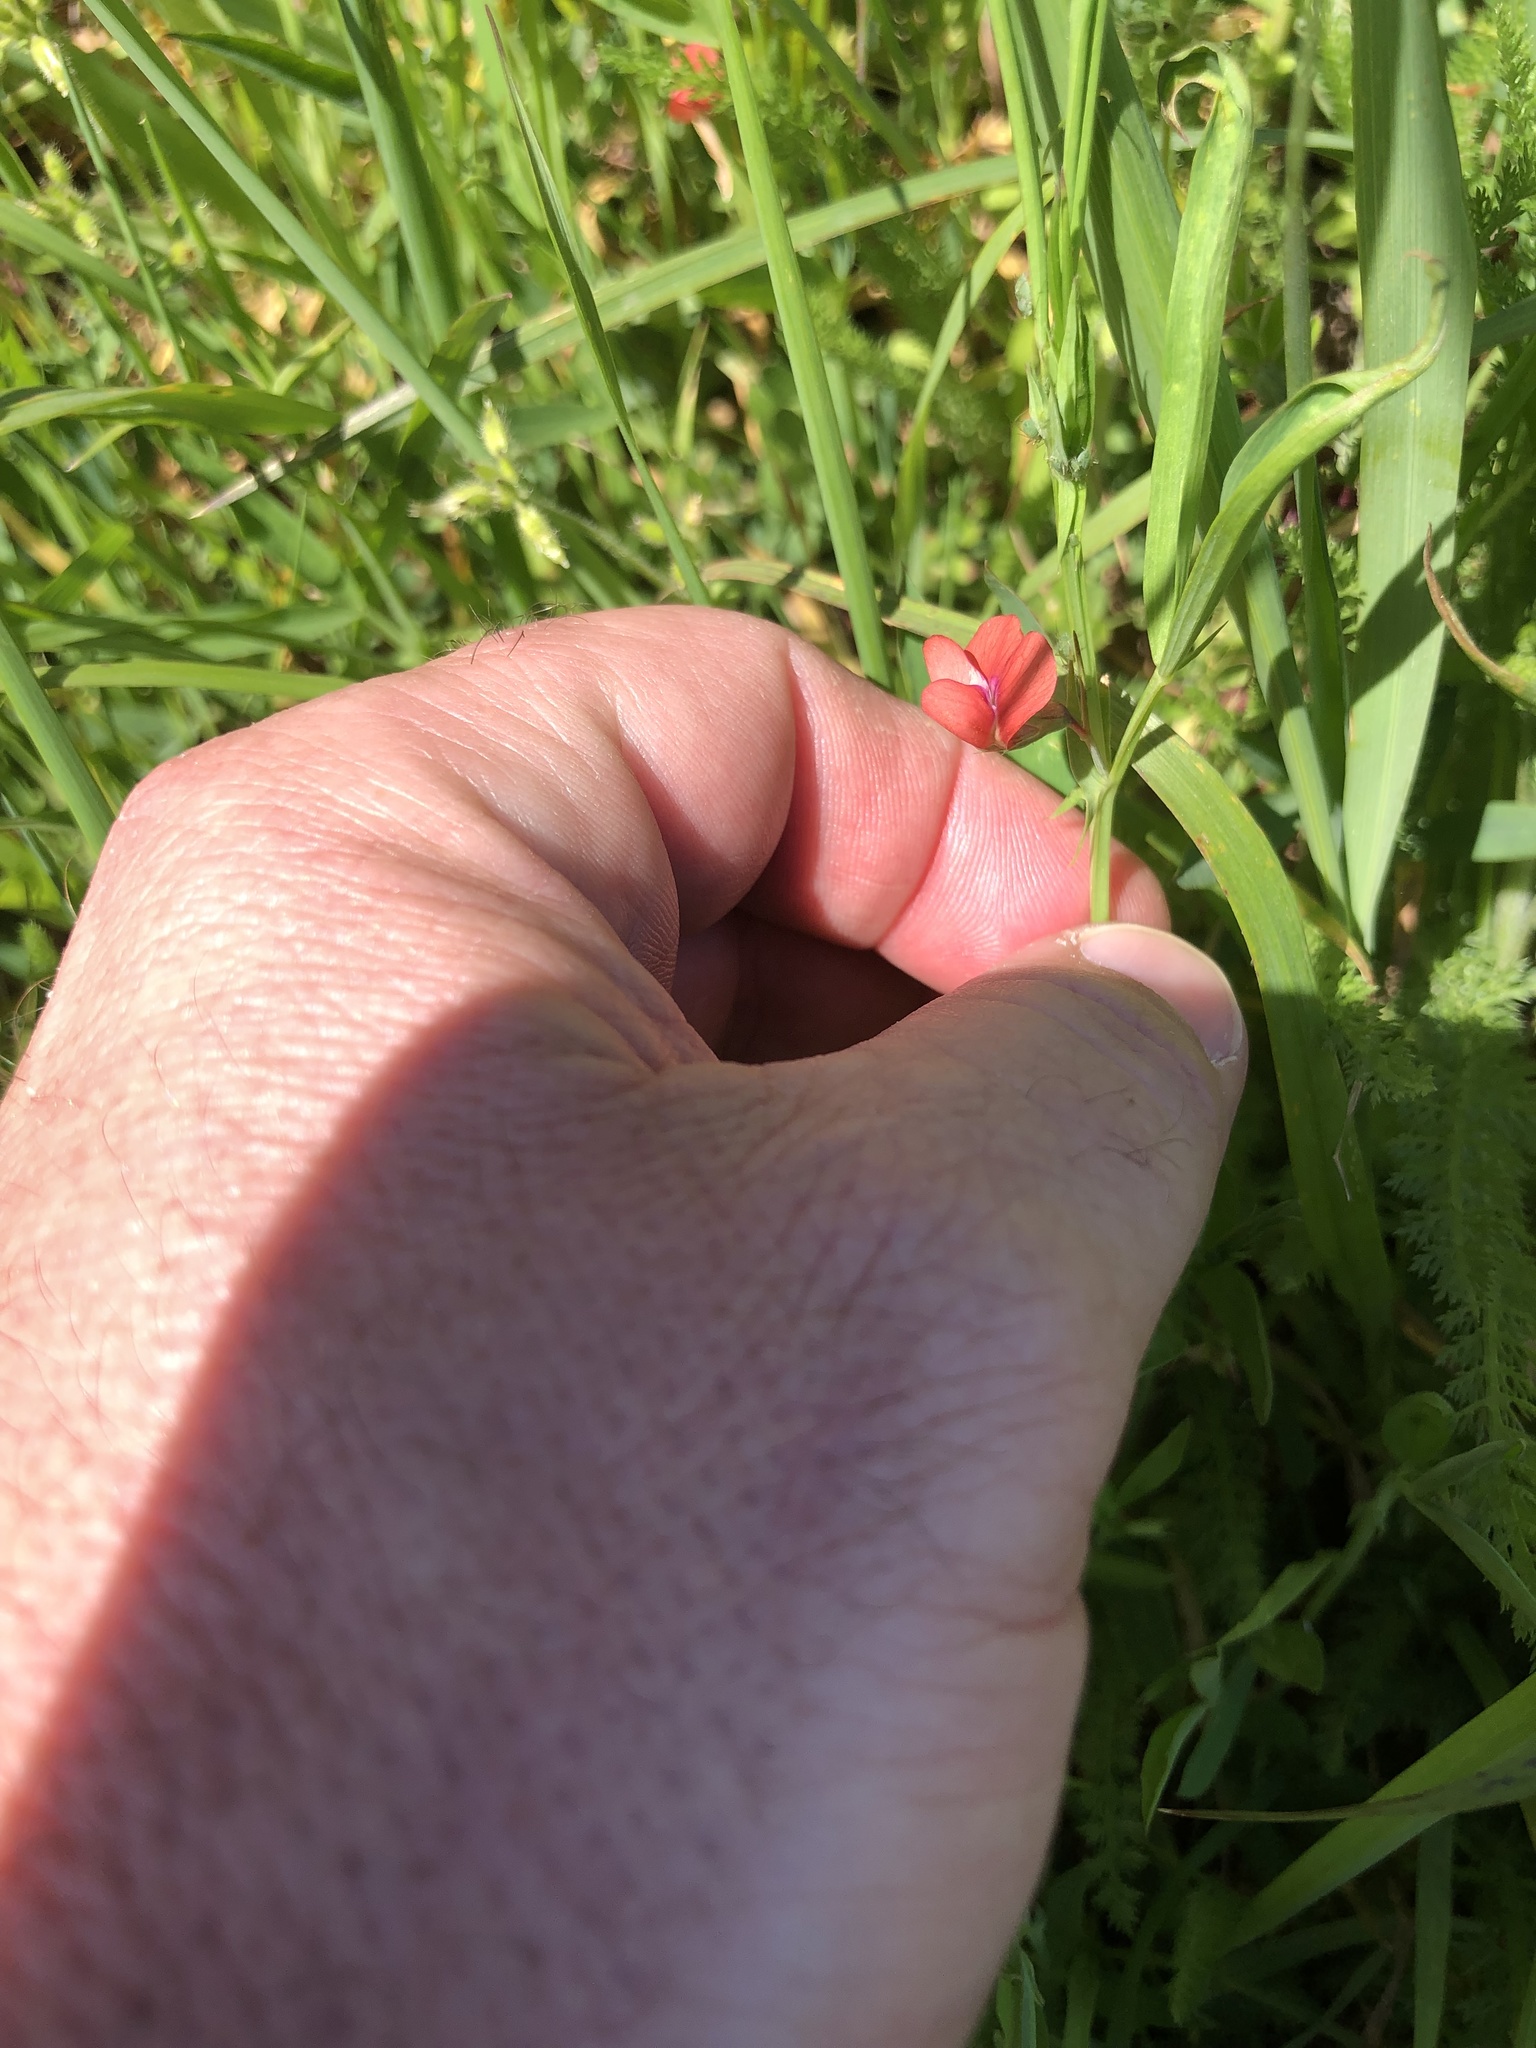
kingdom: Plantae
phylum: Tracheophyta
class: Magnoliopsida
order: Fabales
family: Fabaceae
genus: Lathyrus
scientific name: Lathyrus sphaericus
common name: Grass pea
